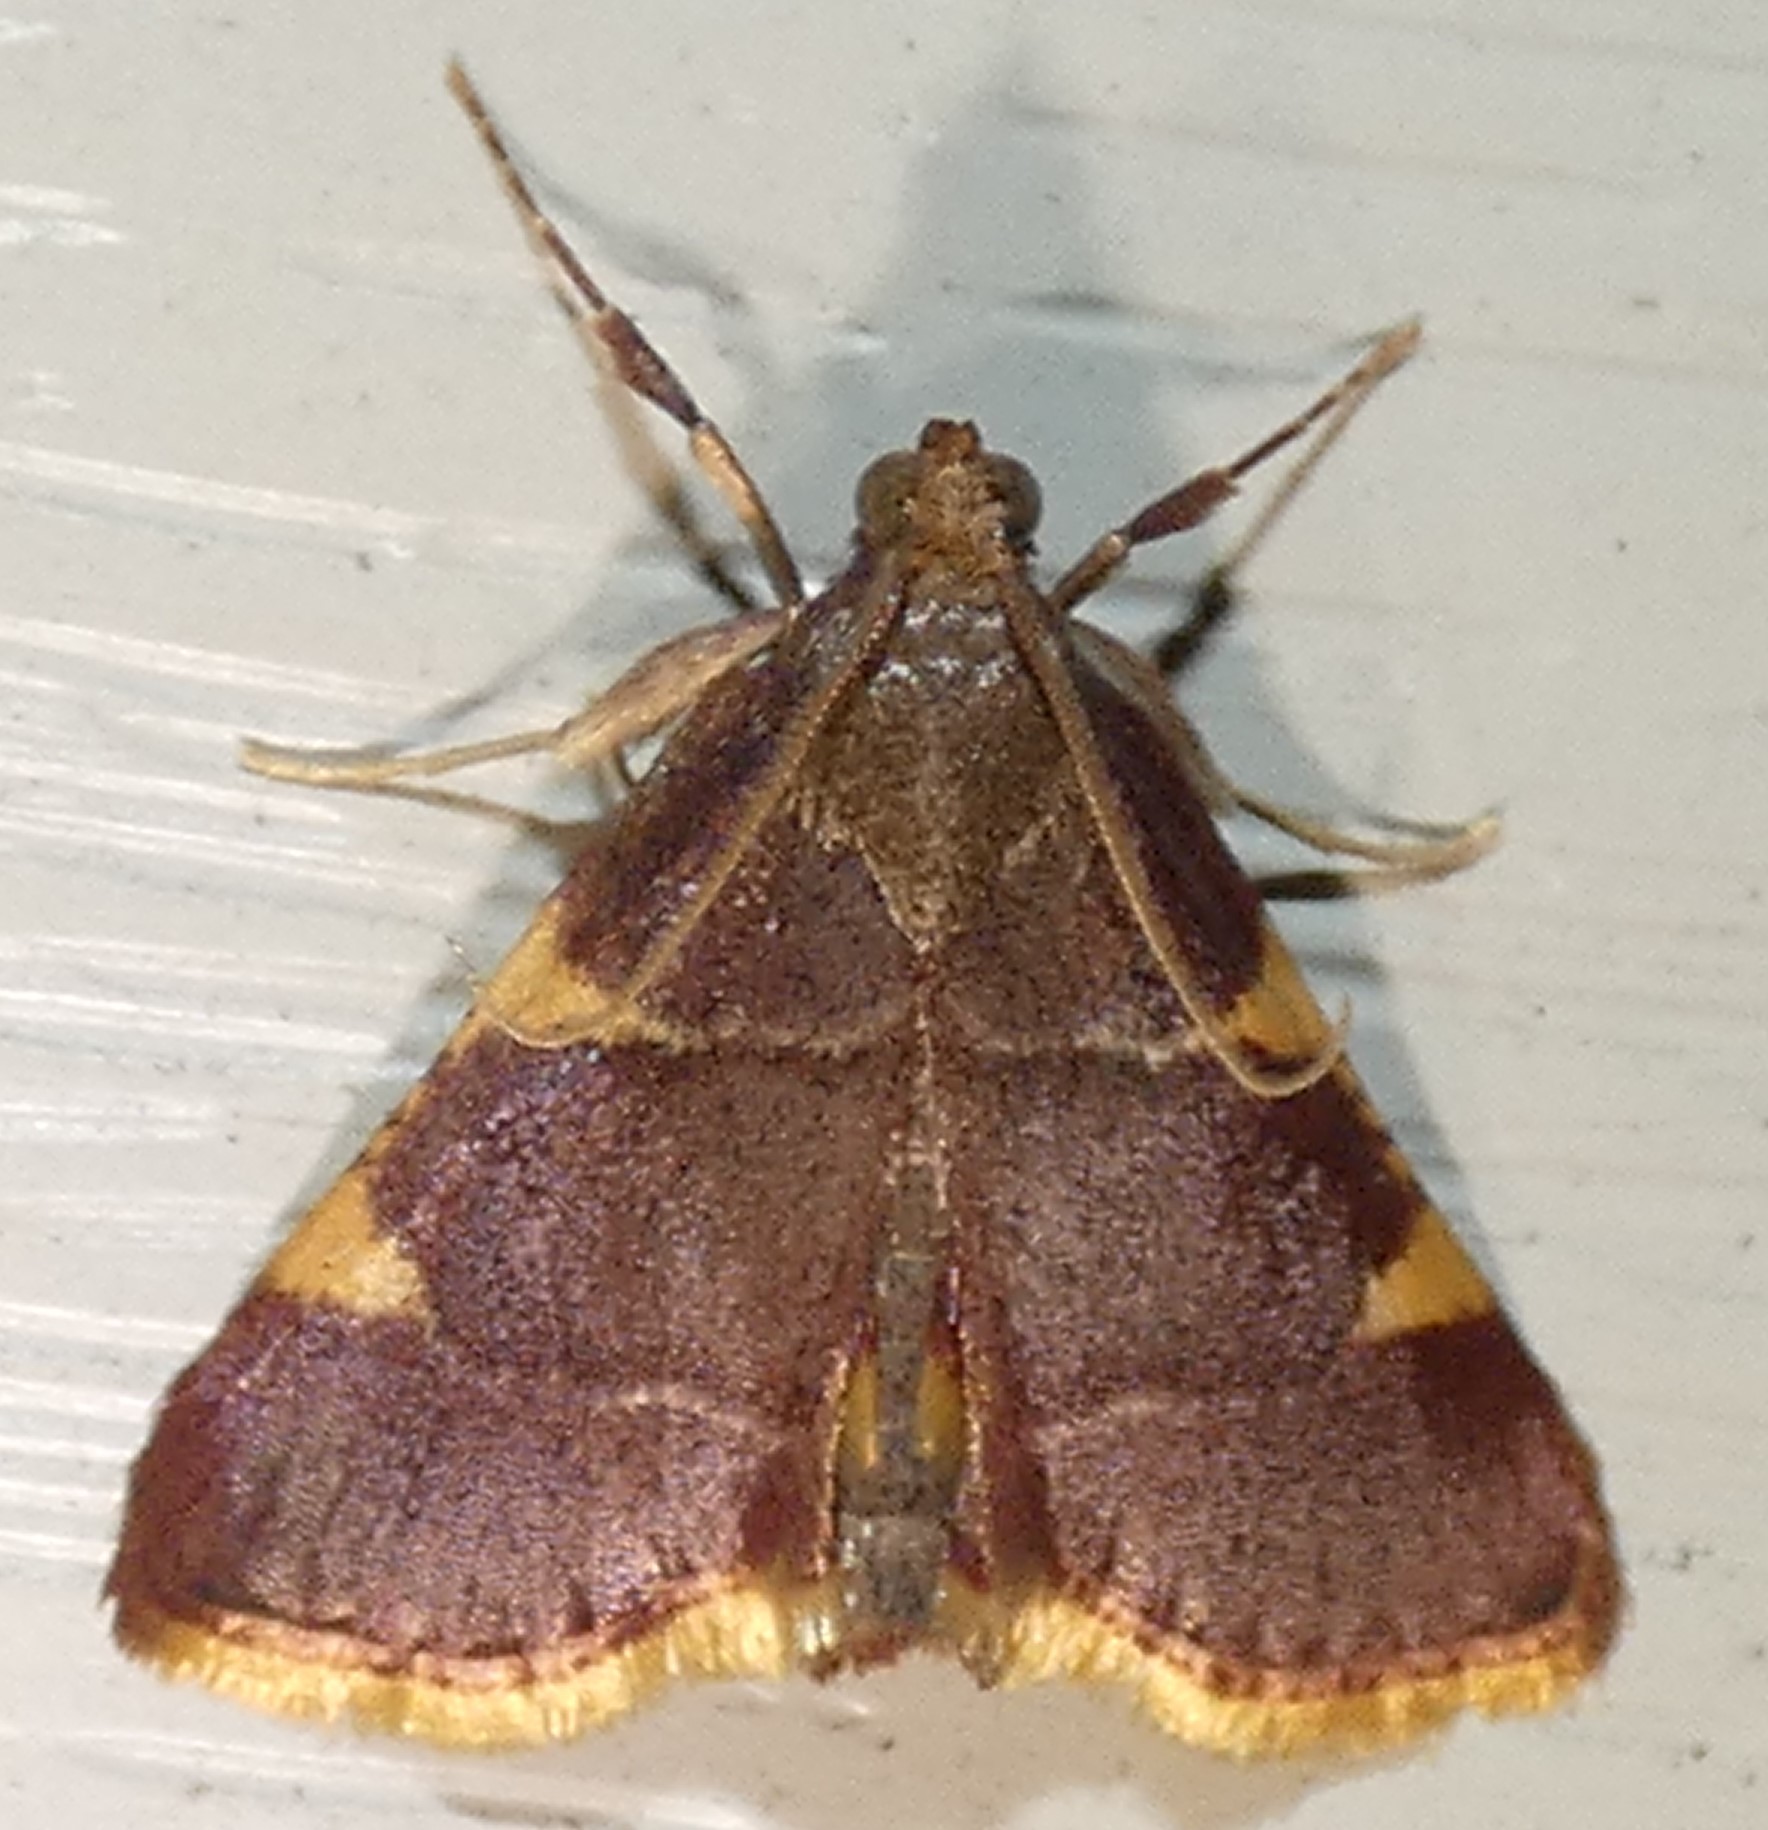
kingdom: Animalia
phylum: Arthropoda
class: Insecta
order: Lepidoptera
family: Pyralidae
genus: Hypsopygia
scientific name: Hypsopygia olinalis
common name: Yellow-fringed dolichomia moth
